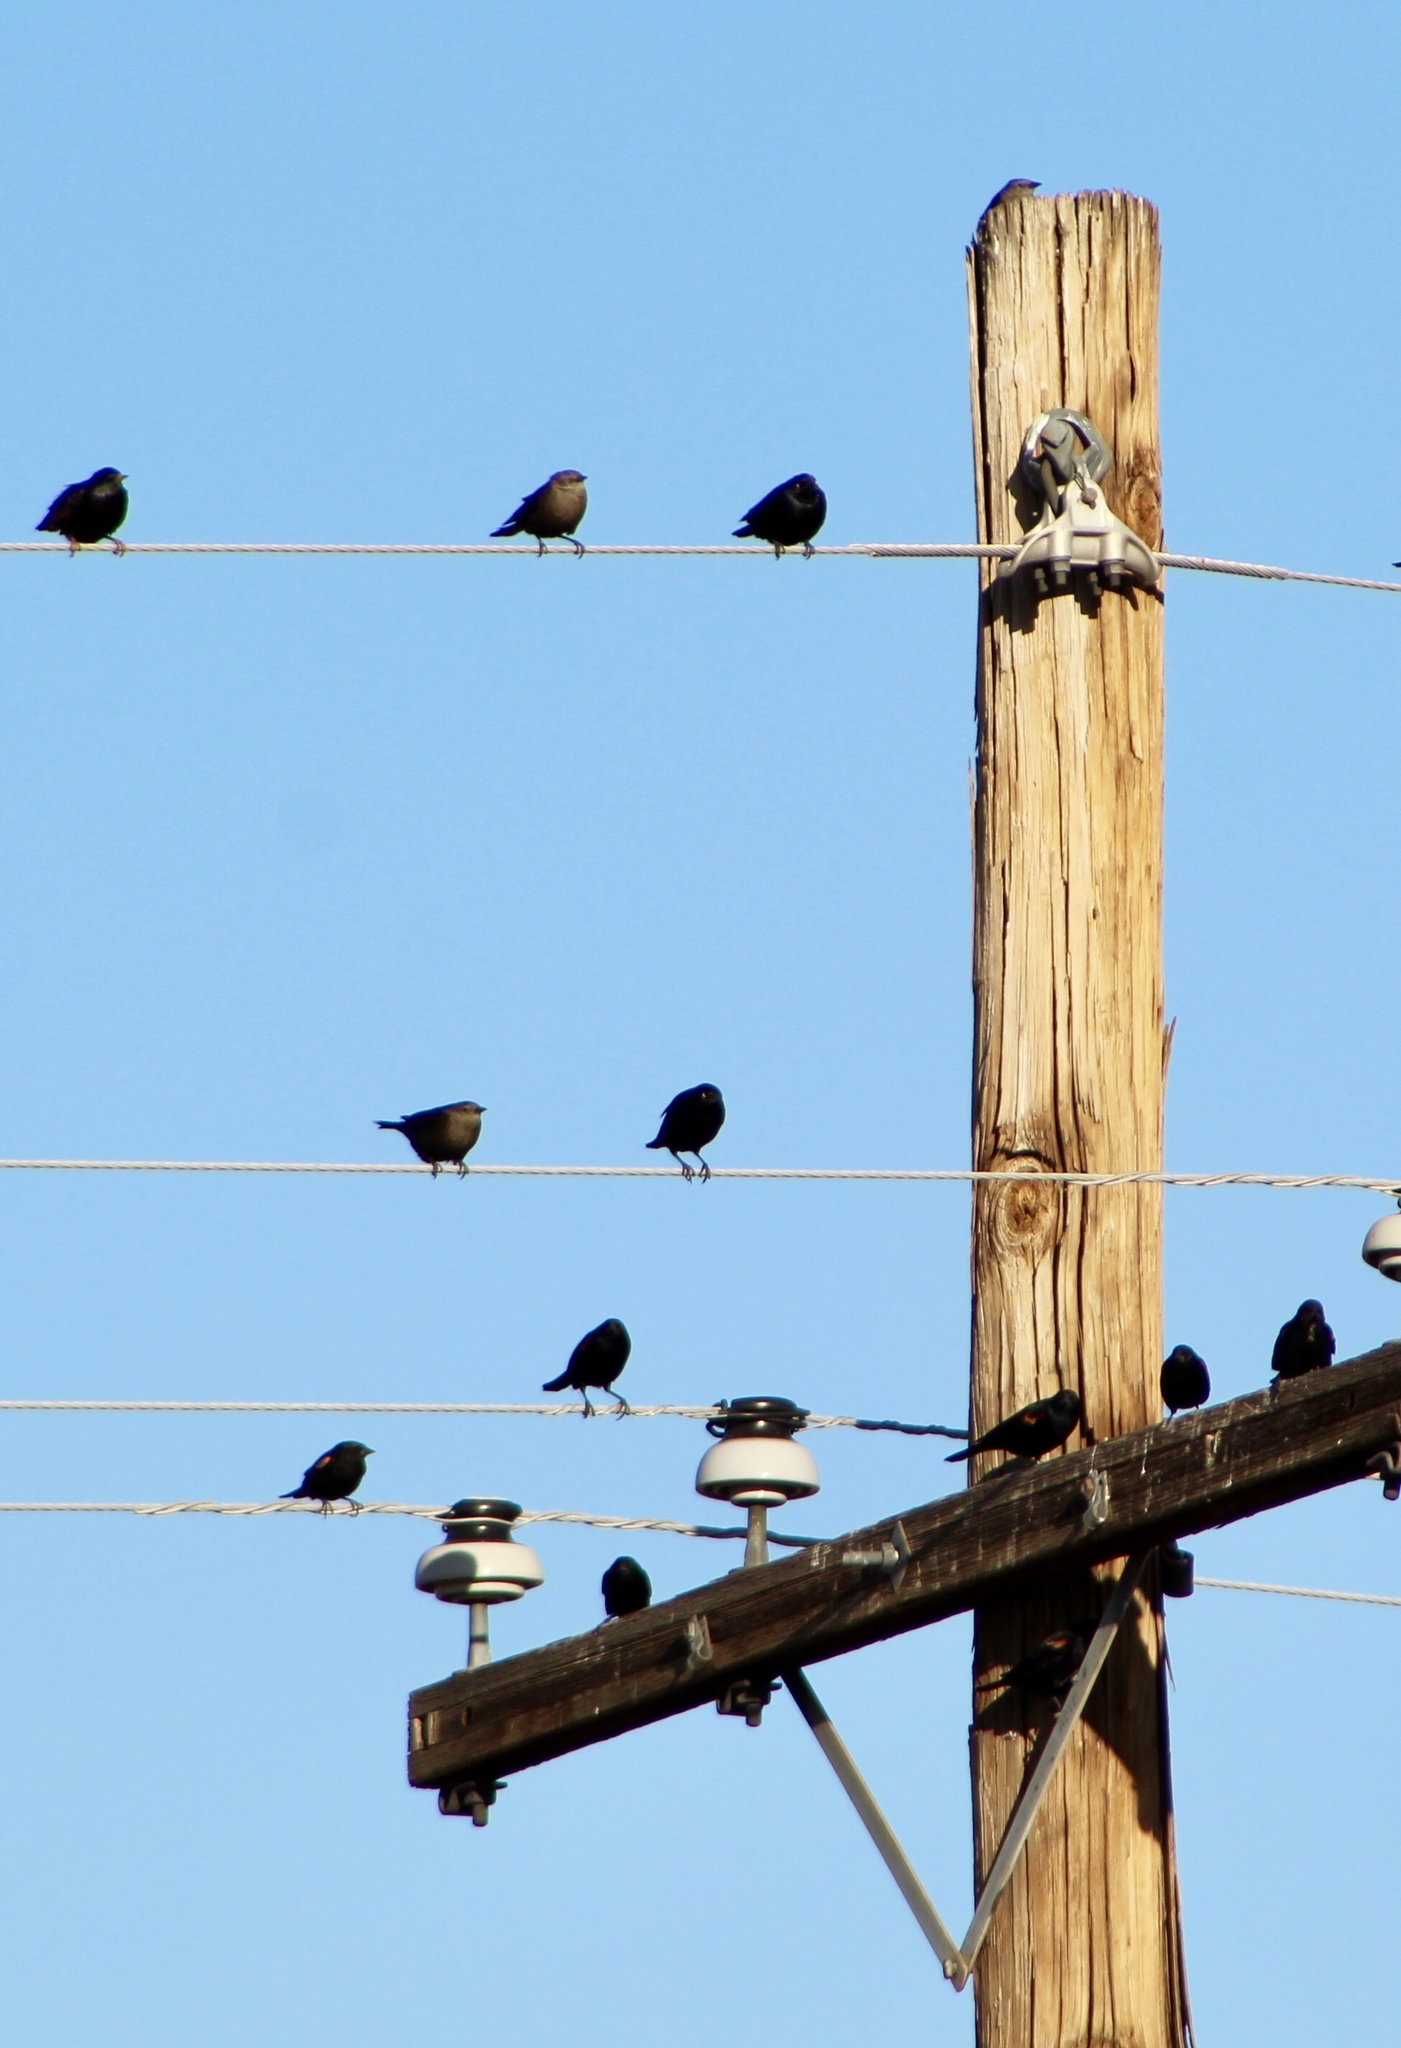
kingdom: Animalia
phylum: Chordata
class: Aves
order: Passeriformes
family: Icteridae
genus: Molothrus
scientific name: Molothrus ater
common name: Brown-headed cowbird
